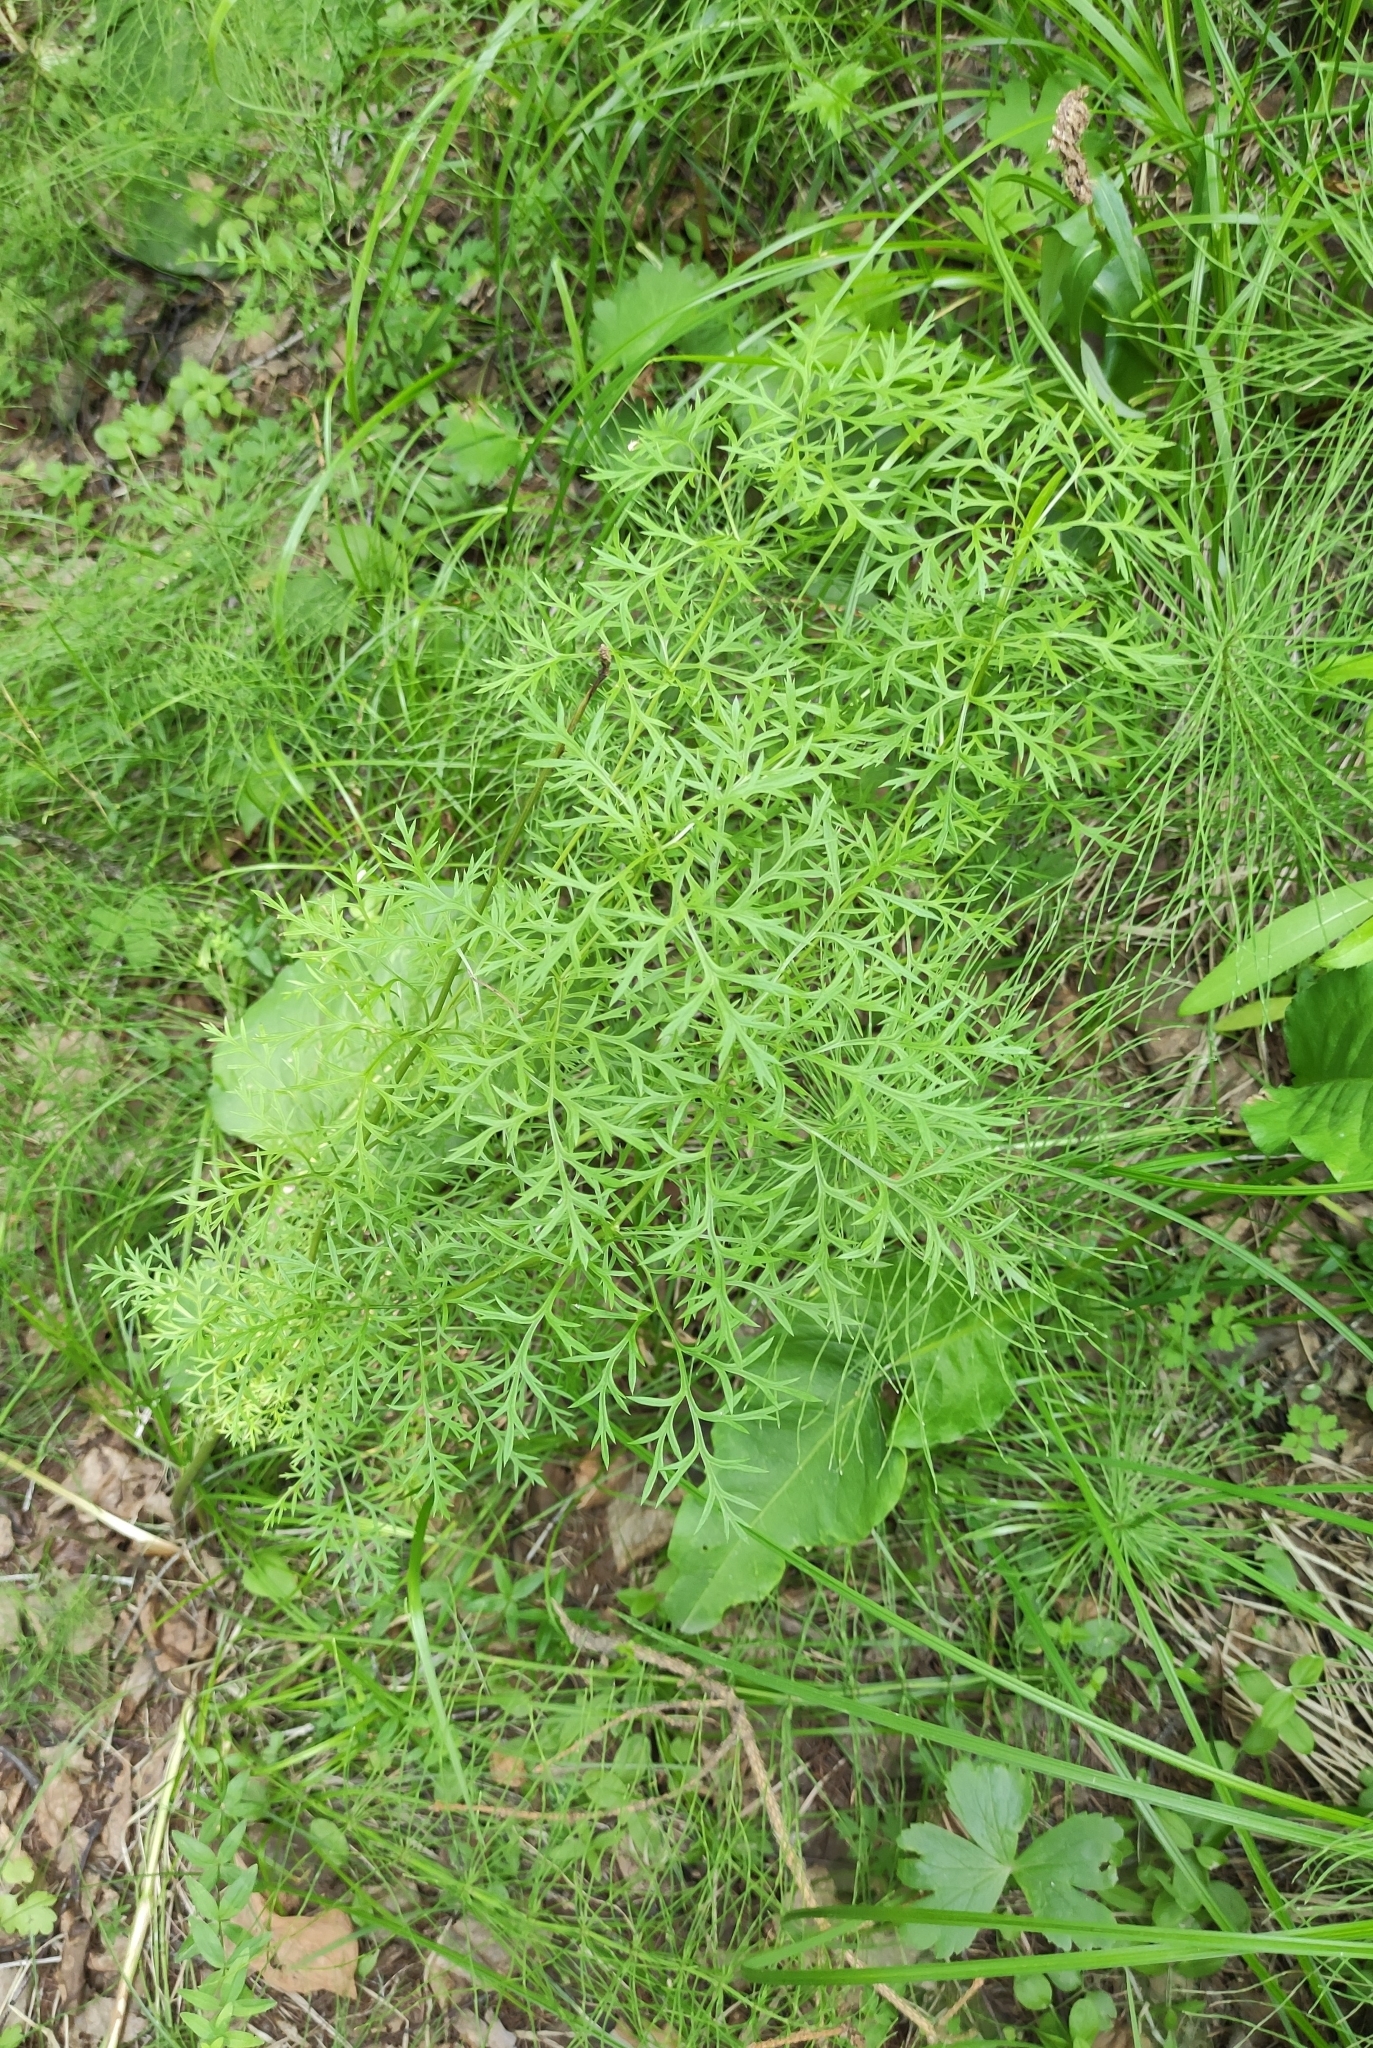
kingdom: Plantae
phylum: Tracheophyta
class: Magnoliopsida
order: Ranunculales
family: Ranunculaceae
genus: Adonis
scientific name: Adonis
